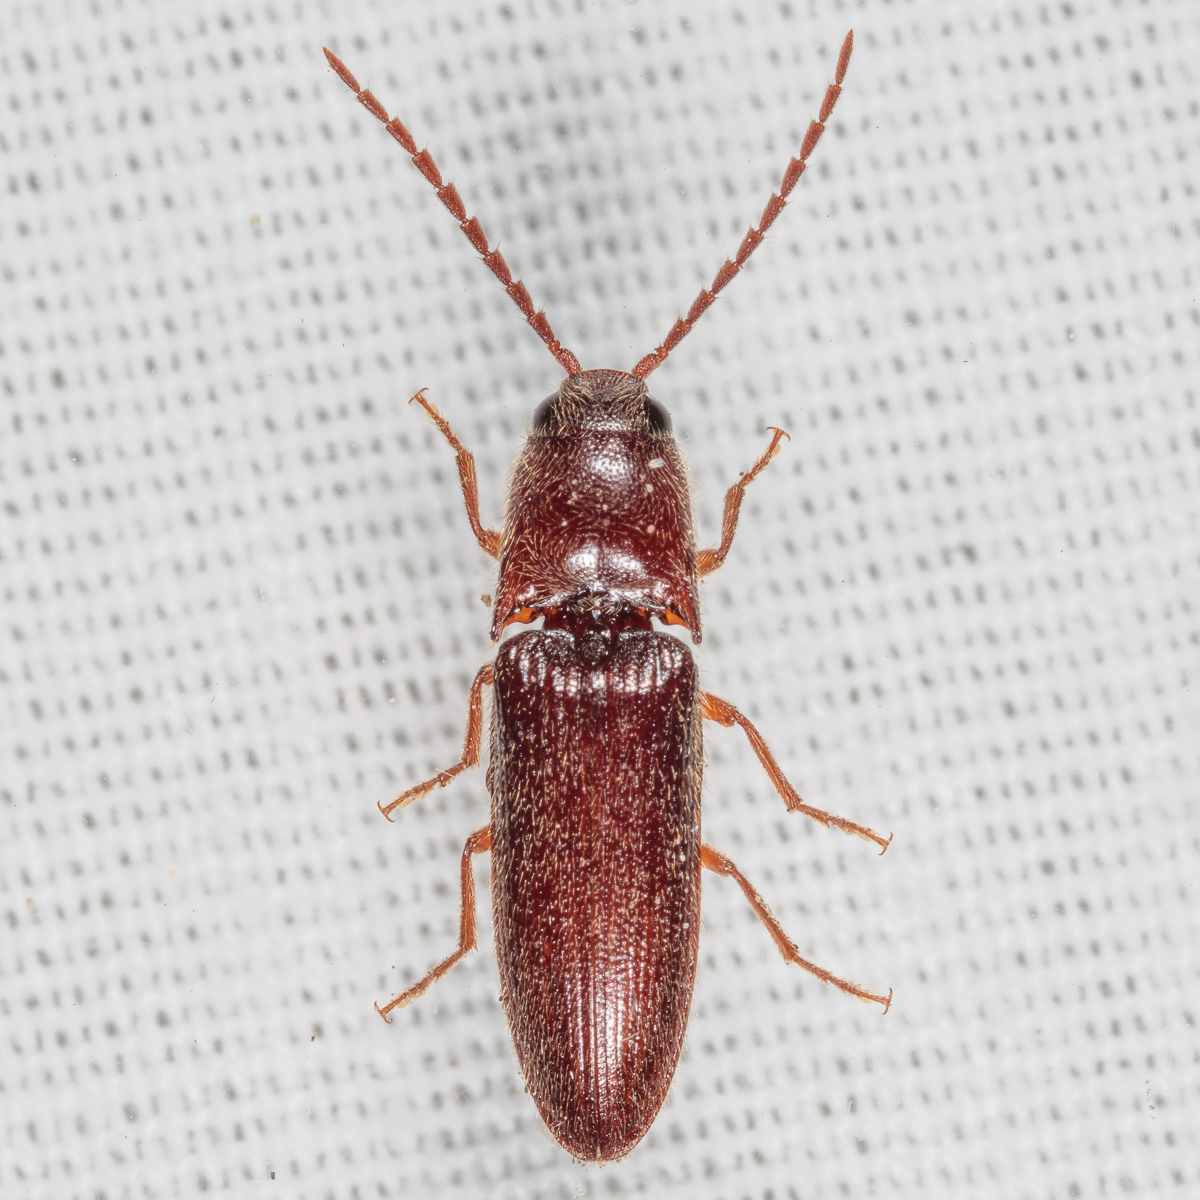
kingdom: Animalia
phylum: Arthropoda
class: Insecta
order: Coleoptera
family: Elateridae
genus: Dipropus
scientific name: Dipropus
